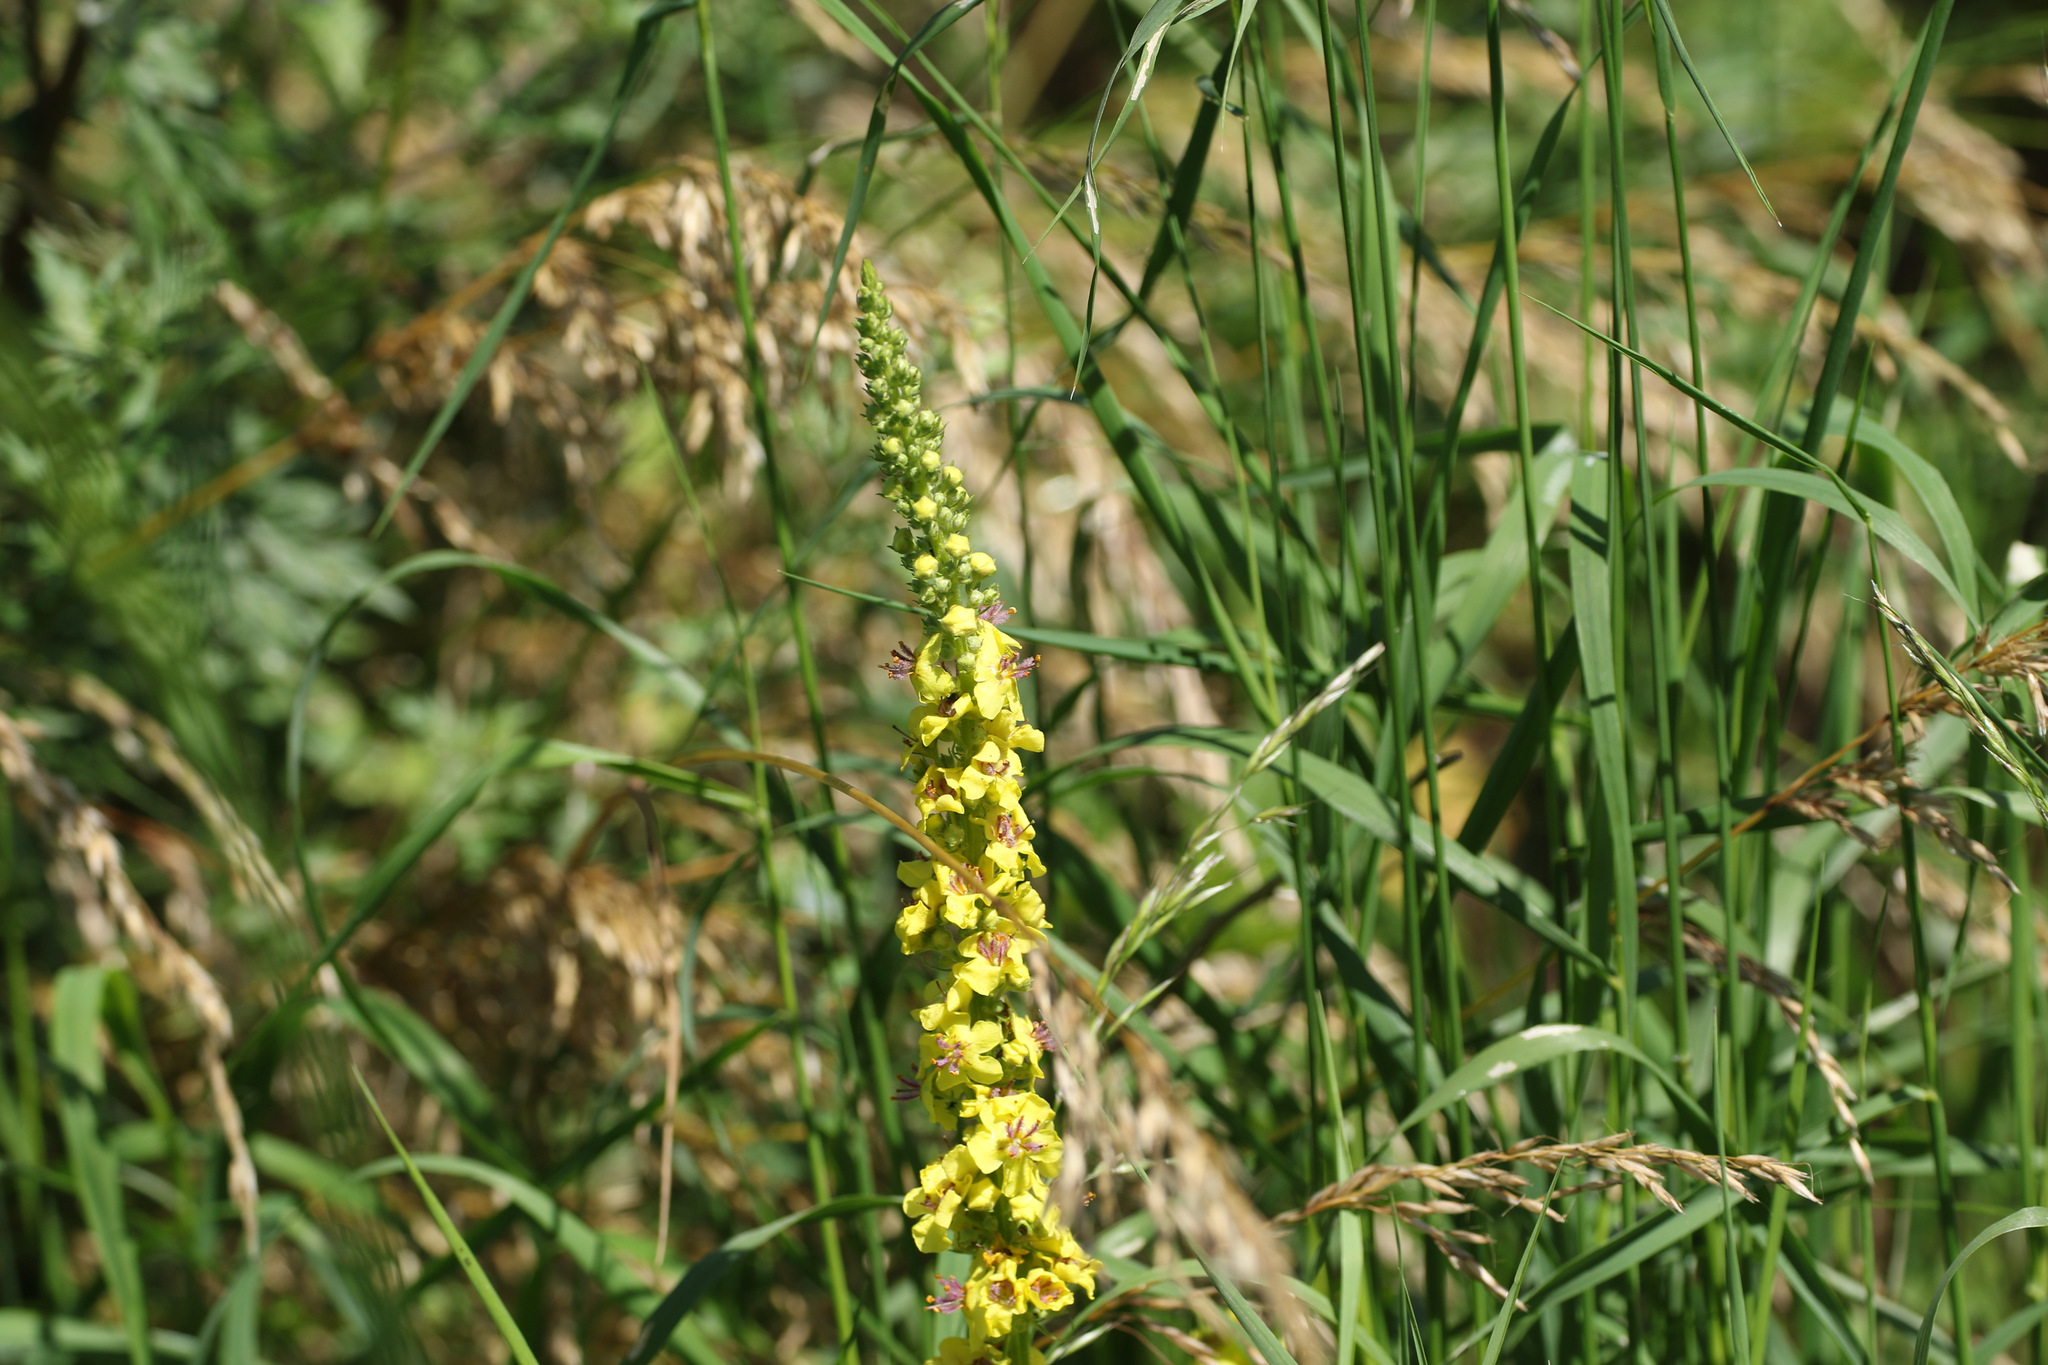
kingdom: Plantae
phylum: Tracheophyta
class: Magnoliopsida
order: Lamiales
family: Scrophulariaceae
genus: Verbascum
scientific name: Verbascum nigrum
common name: Dark mullein
